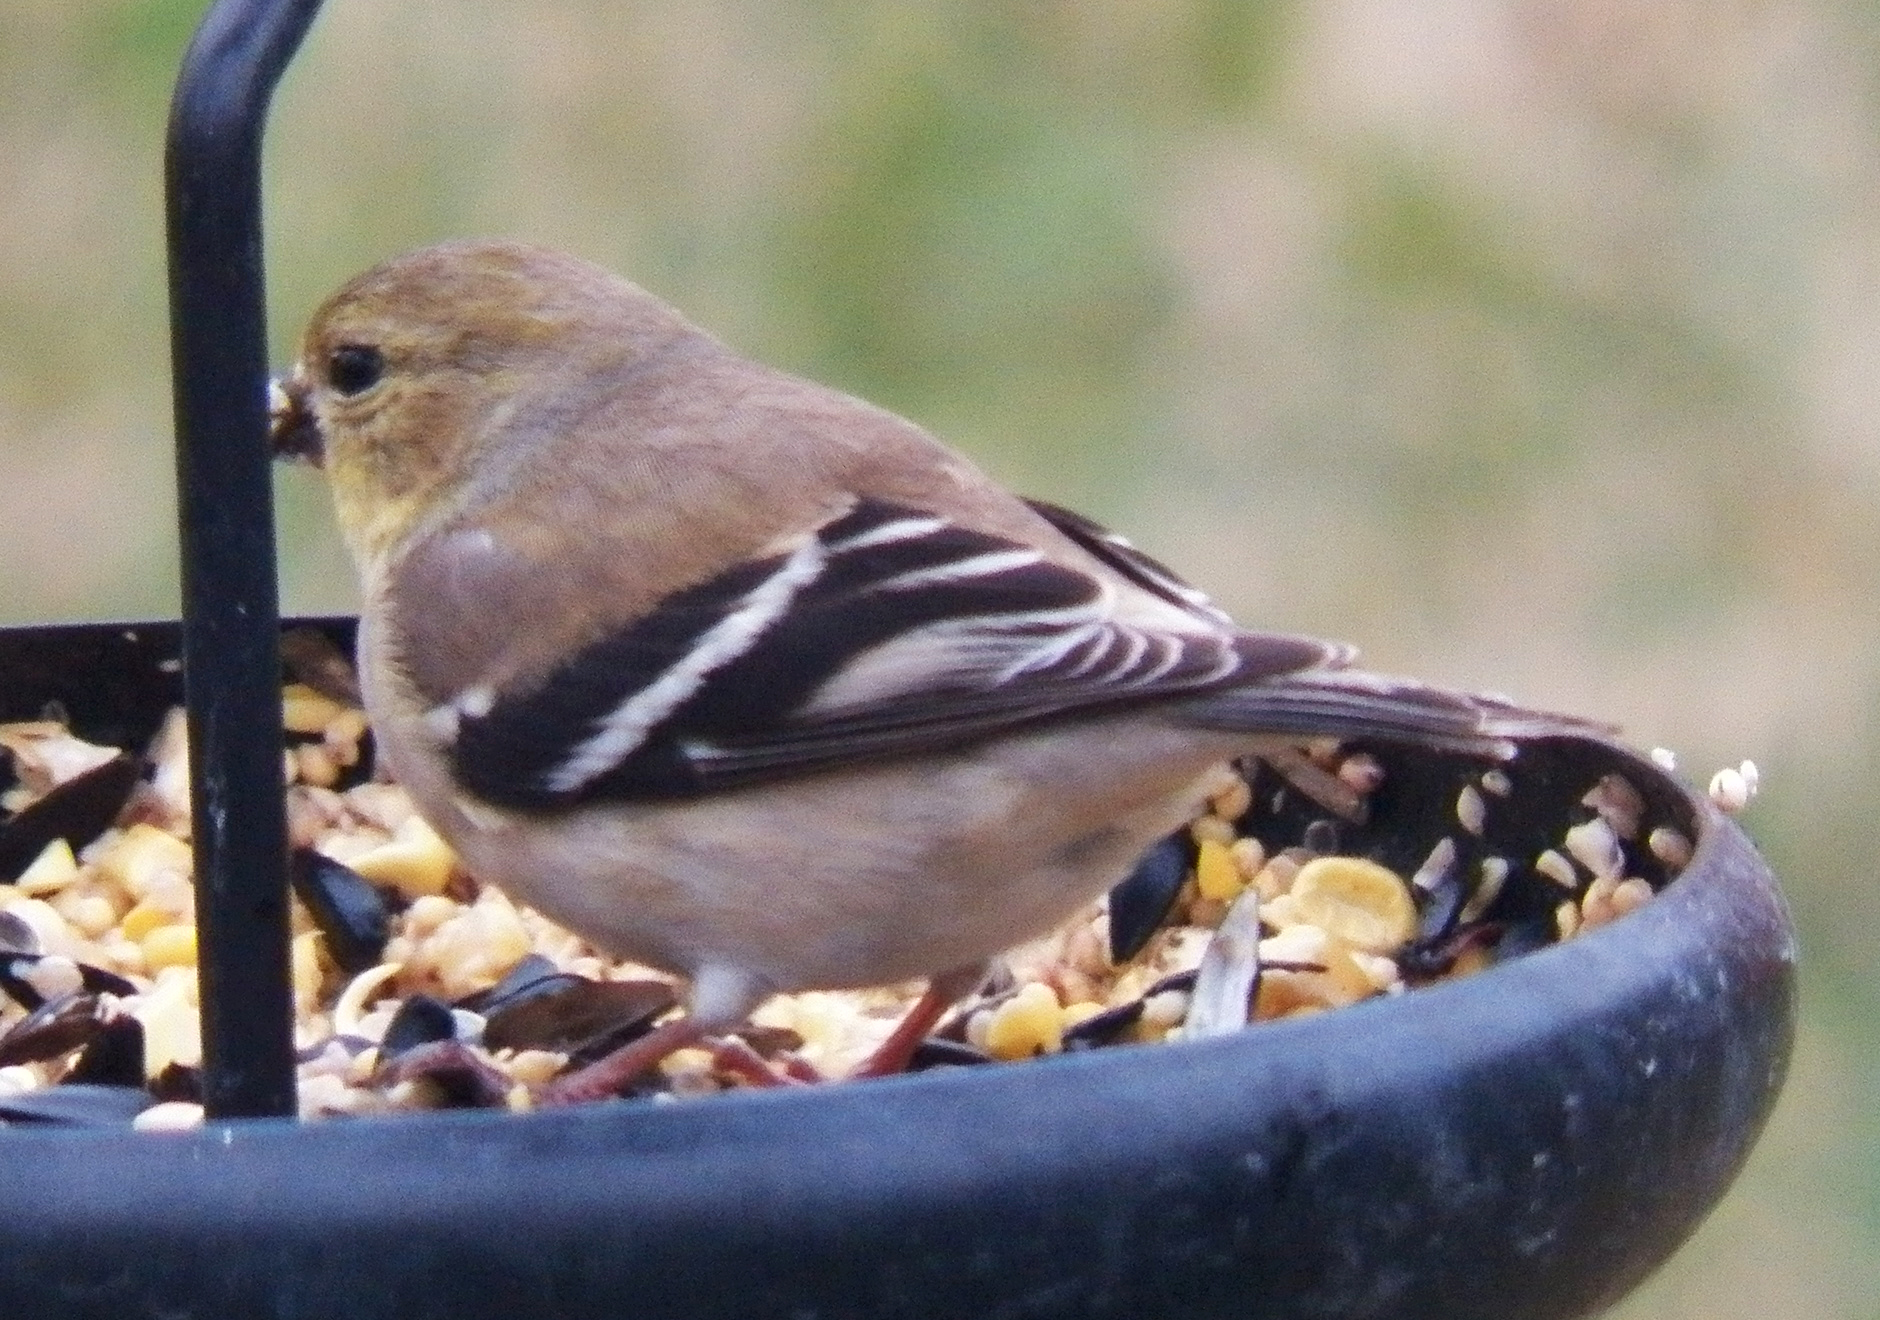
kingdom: Animalia
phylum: Chordata
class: Aves
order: Passeriformes
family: Fringillidae
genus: Spinus
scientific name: Spinus tristis
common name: American goldfinch
